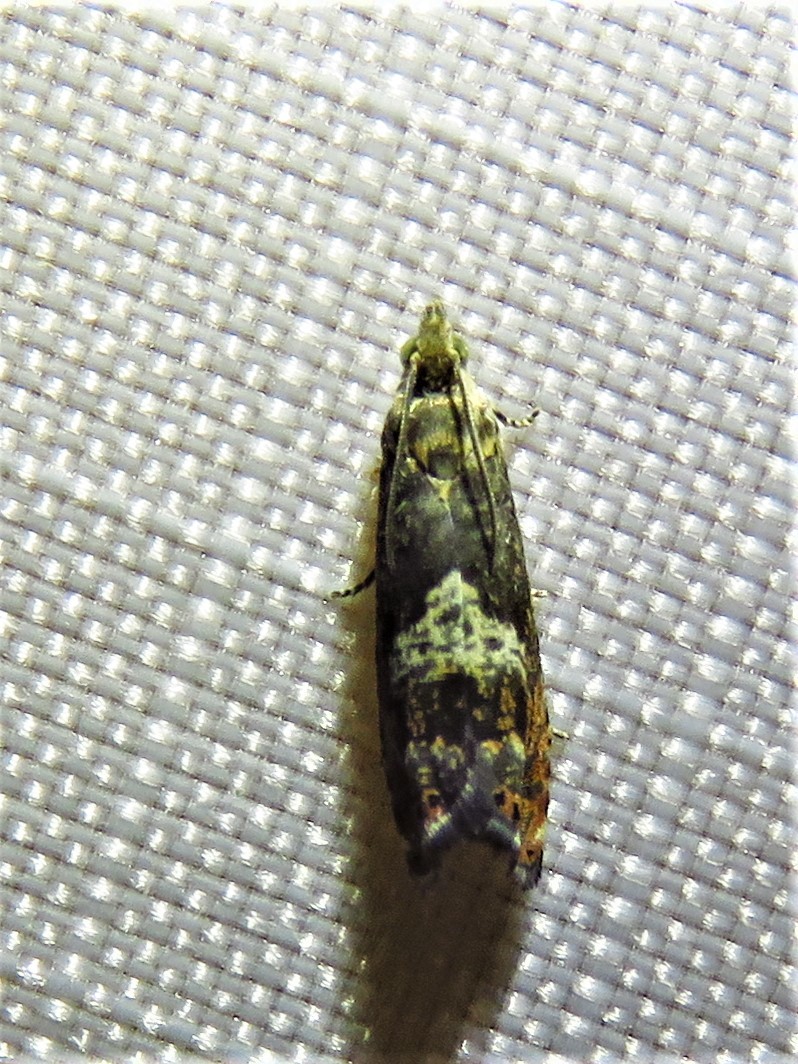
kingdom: Animalia
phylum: Arthropoda
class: Insecta
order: Lepidoptera
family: Tortricidae
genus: Goditha
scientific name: Goditha bumeliana
